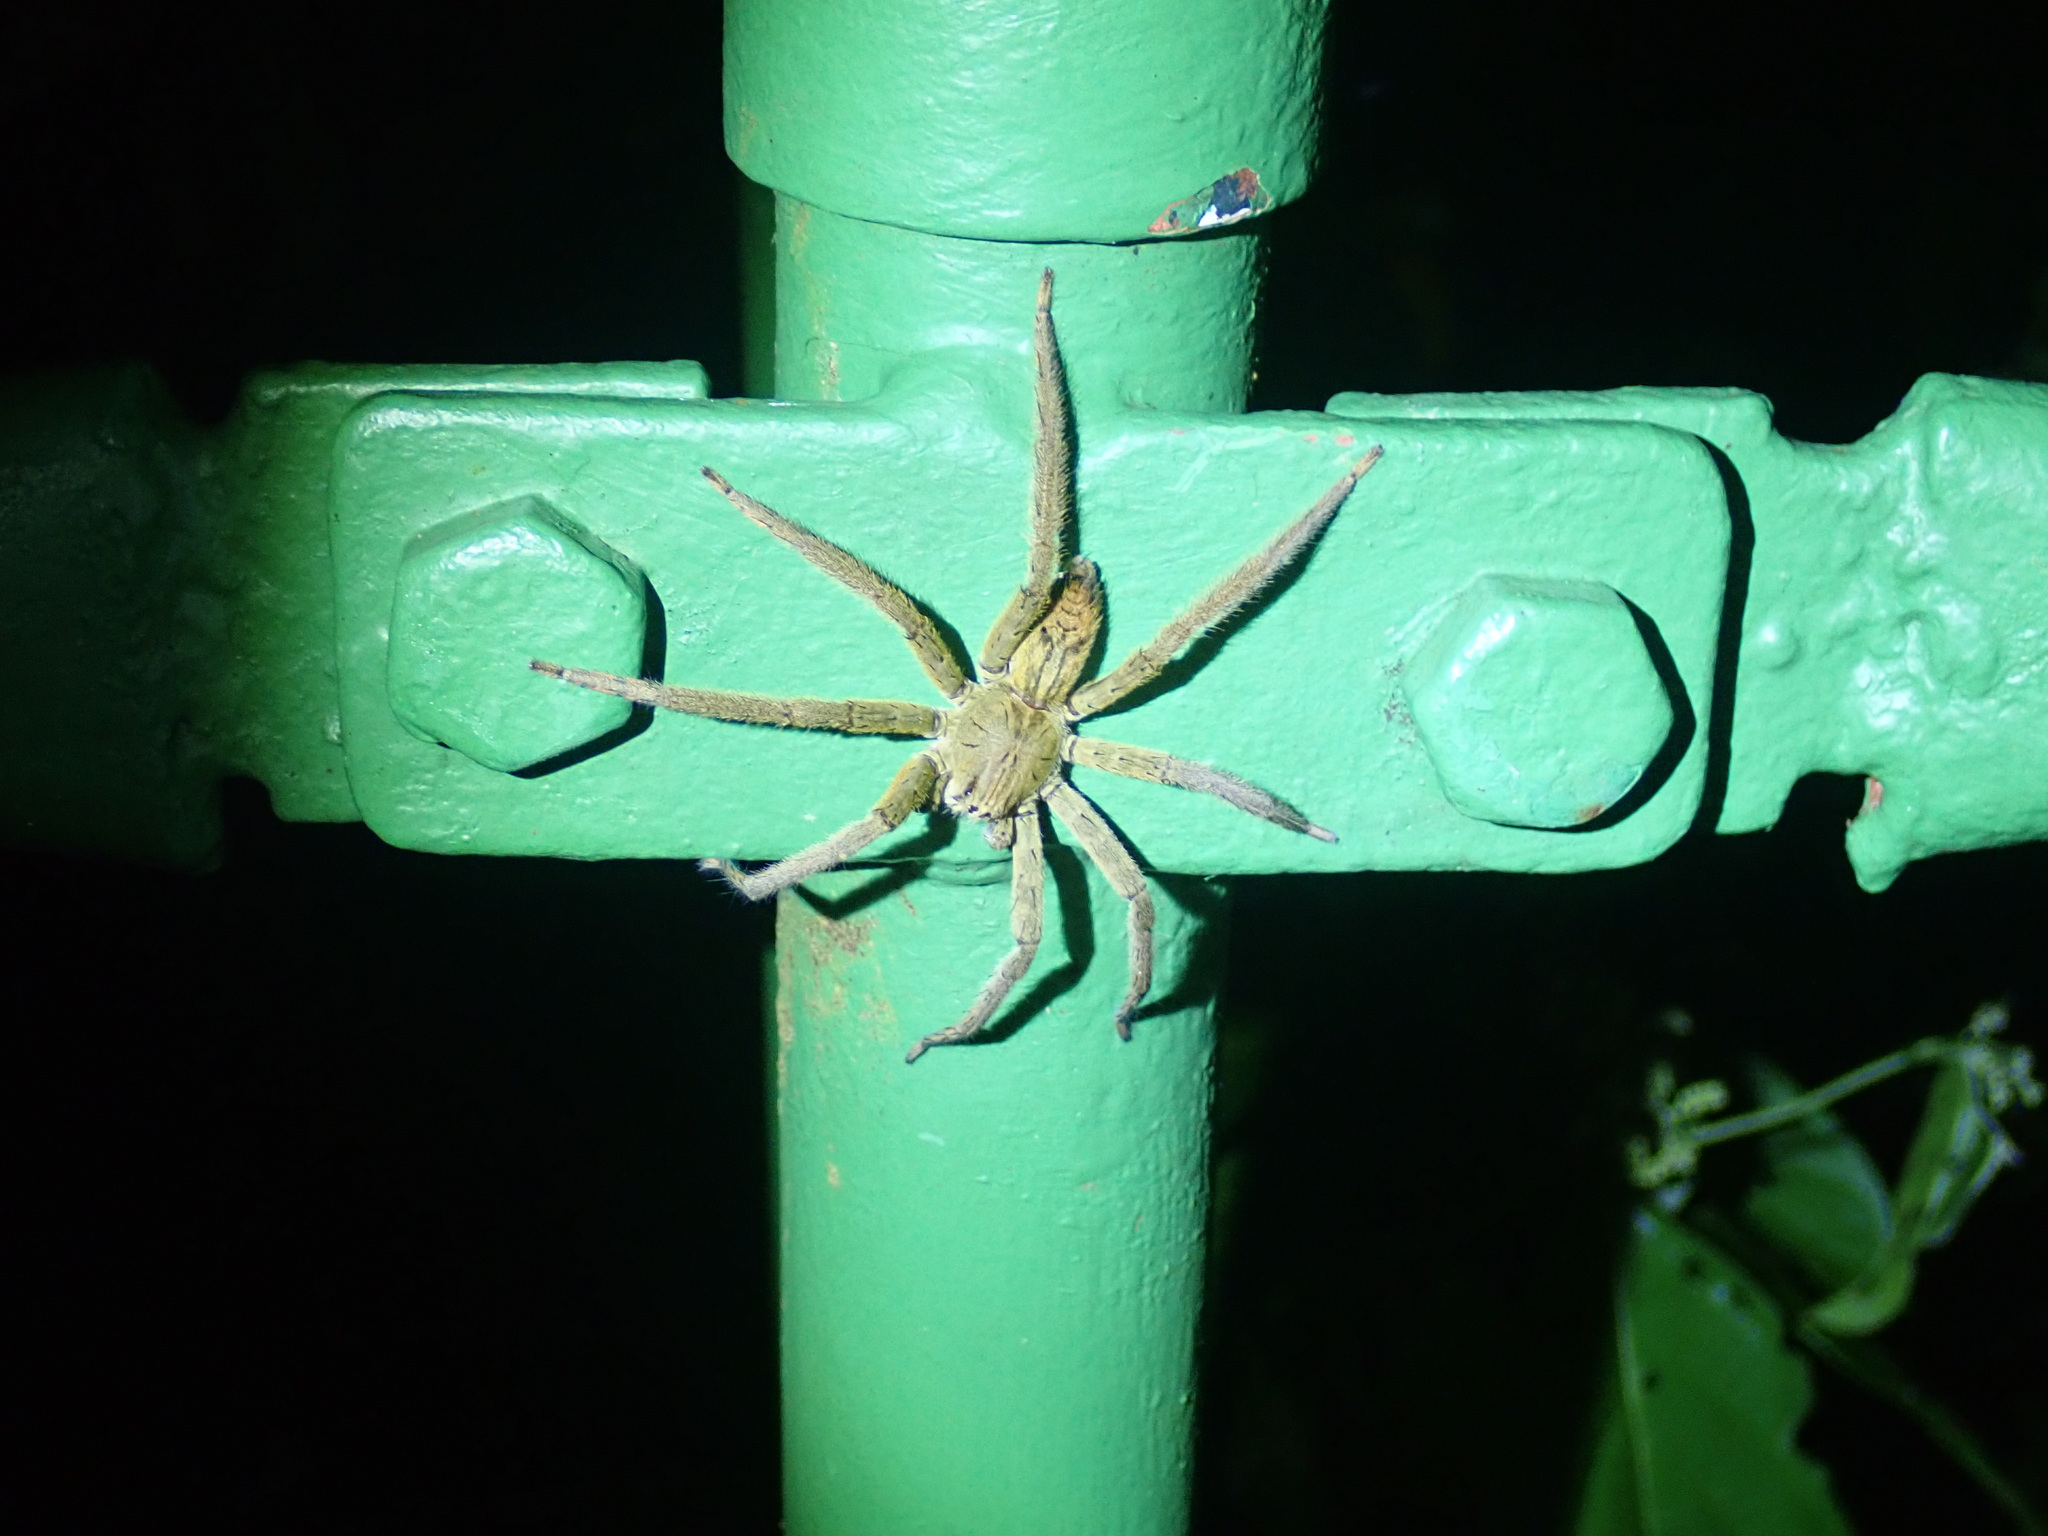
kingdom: Animalia
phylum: Arthropoda
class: Arachnida
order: Araneae
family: Trechaleidae
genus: Cupiennius
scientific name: Cupiennius coccineus
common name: Wandering spiders
